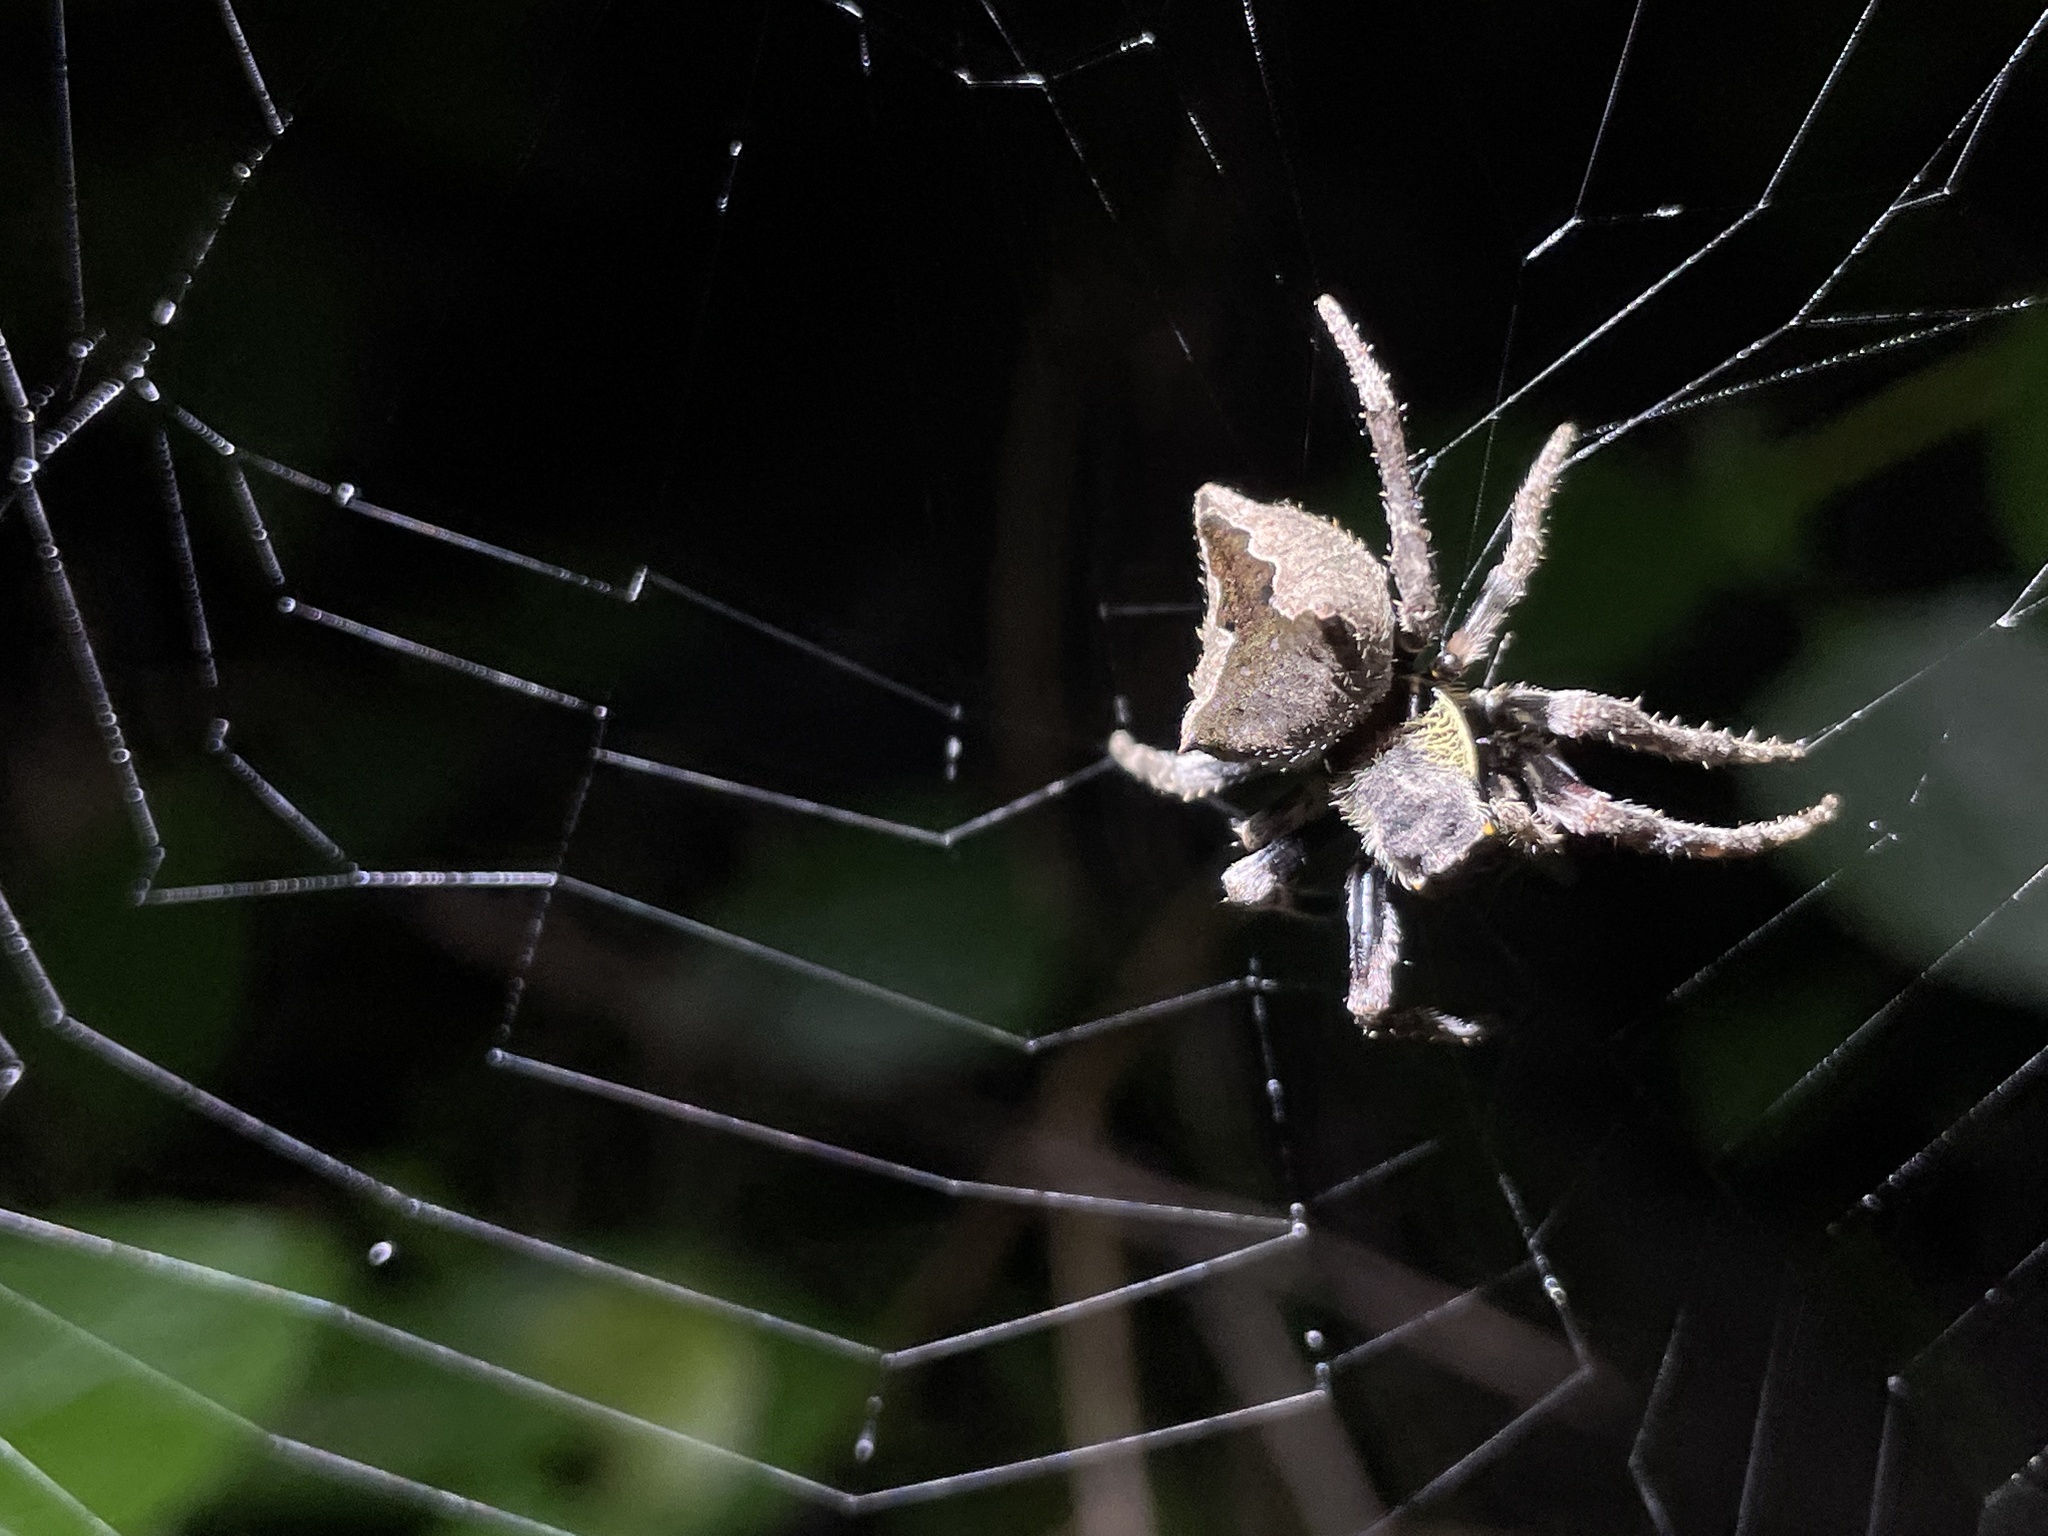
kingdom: Animalia
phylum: Arthropoda
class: Arachnida
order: Araneae
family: Araneidae
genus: Parawixia
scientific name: Parawixia dehaani
